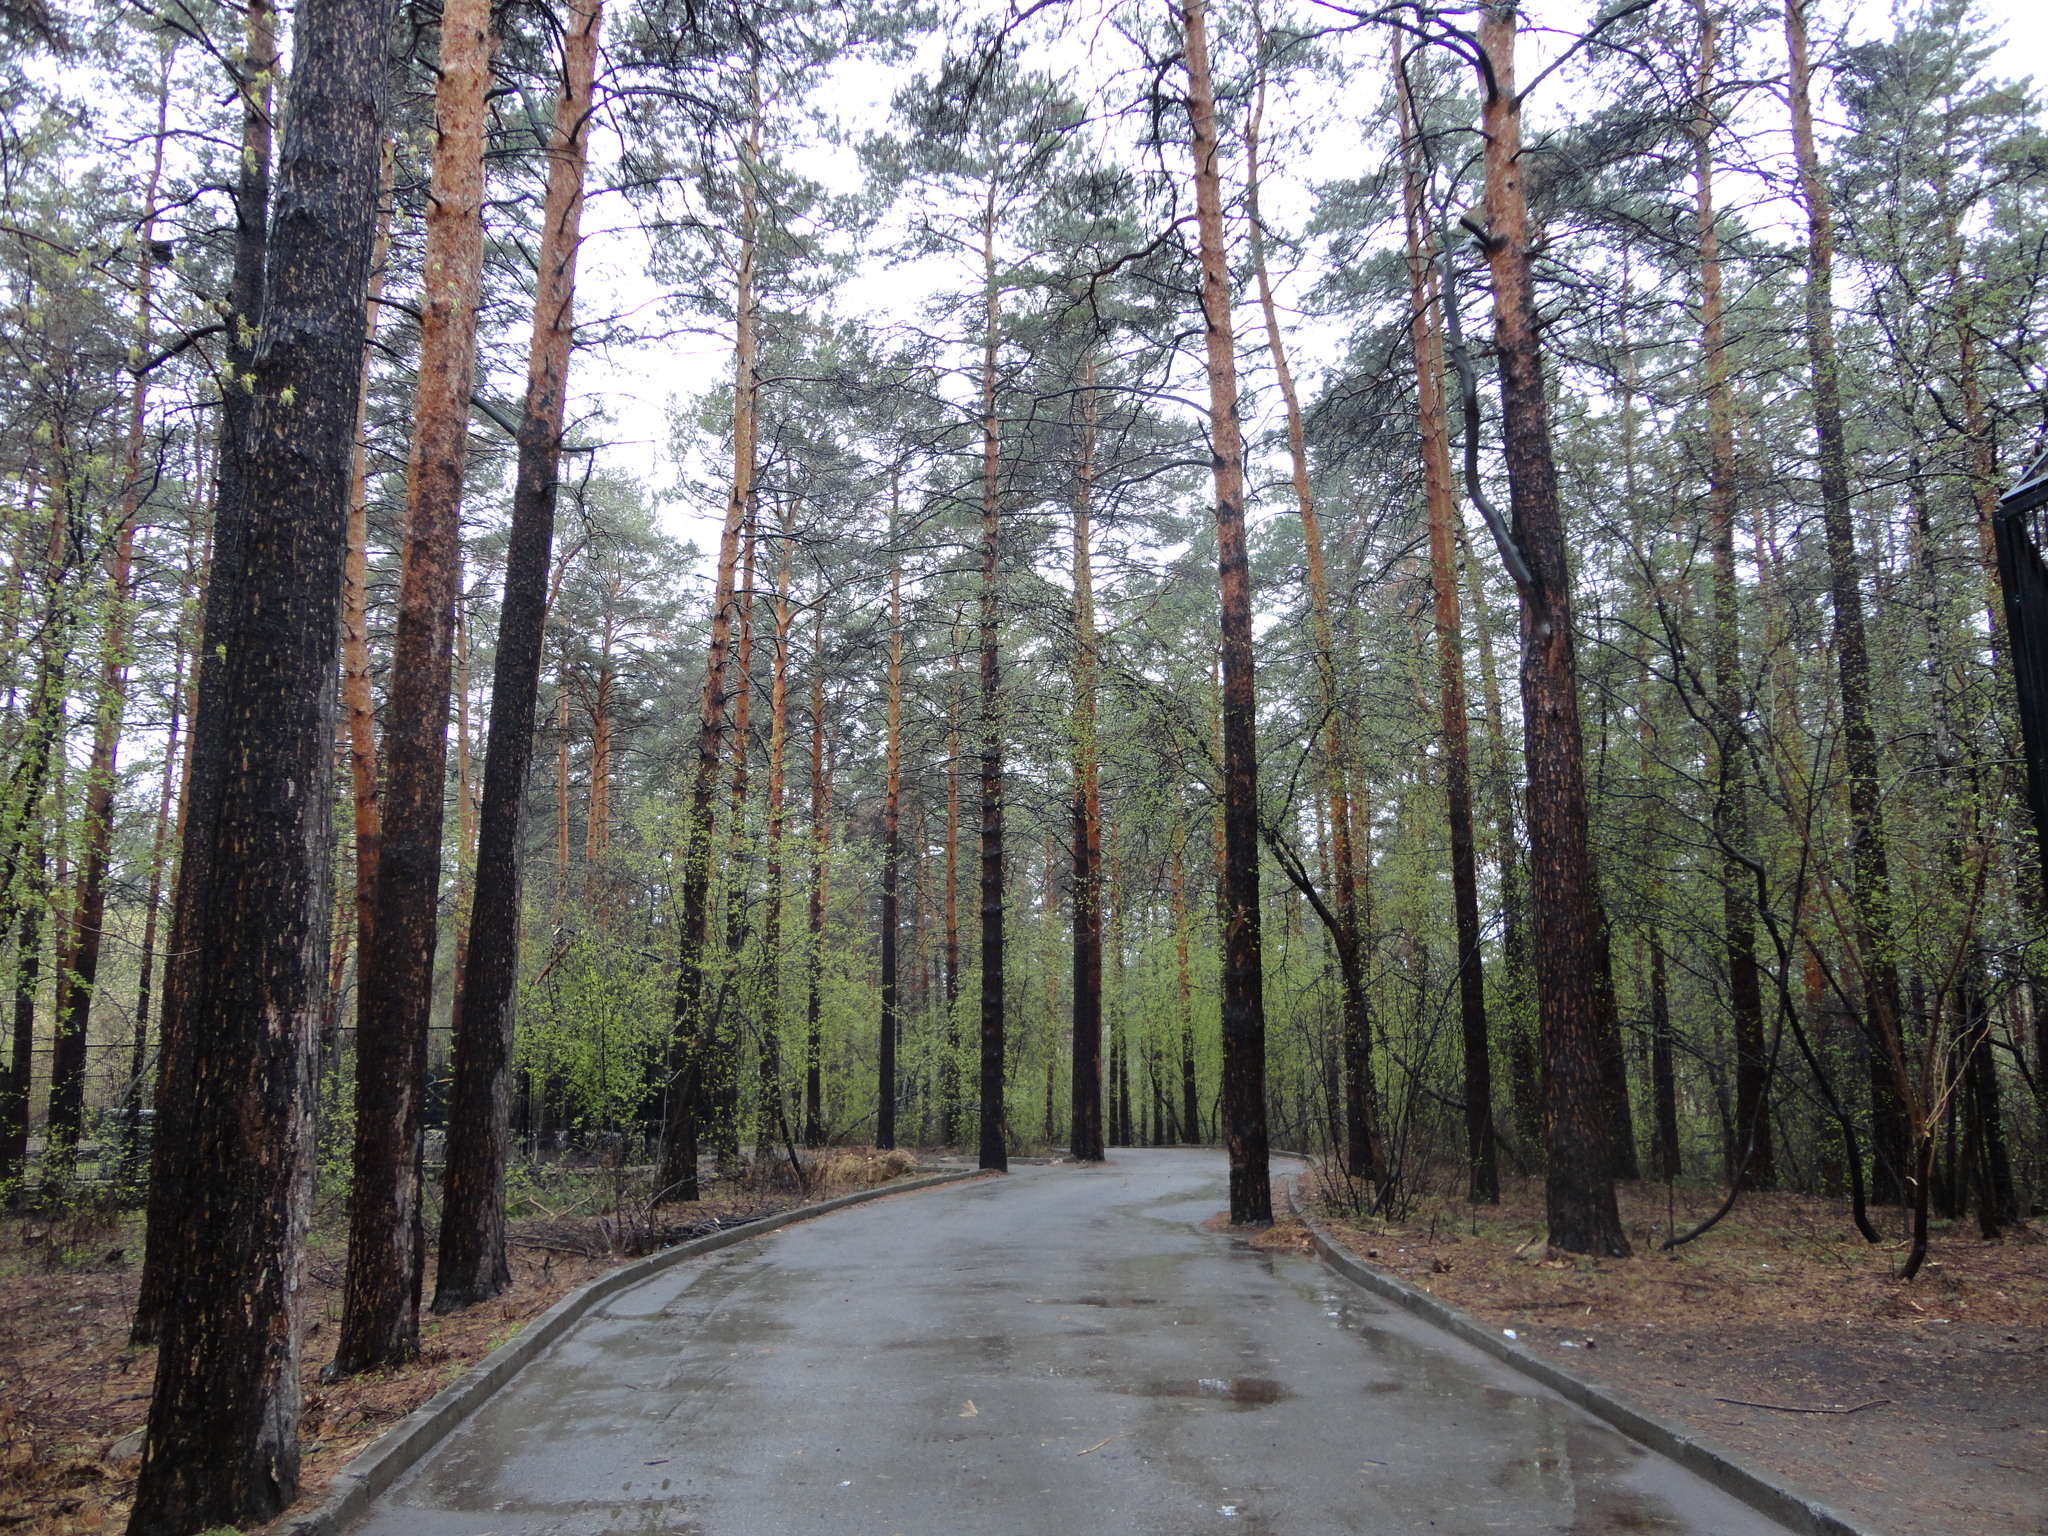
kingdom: Plantae
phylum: Tracheophyta
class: Pinopsida
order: Pinales
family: Pinaceae
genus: Pinus
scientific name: Pinus sylvestris
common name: Scots pine
